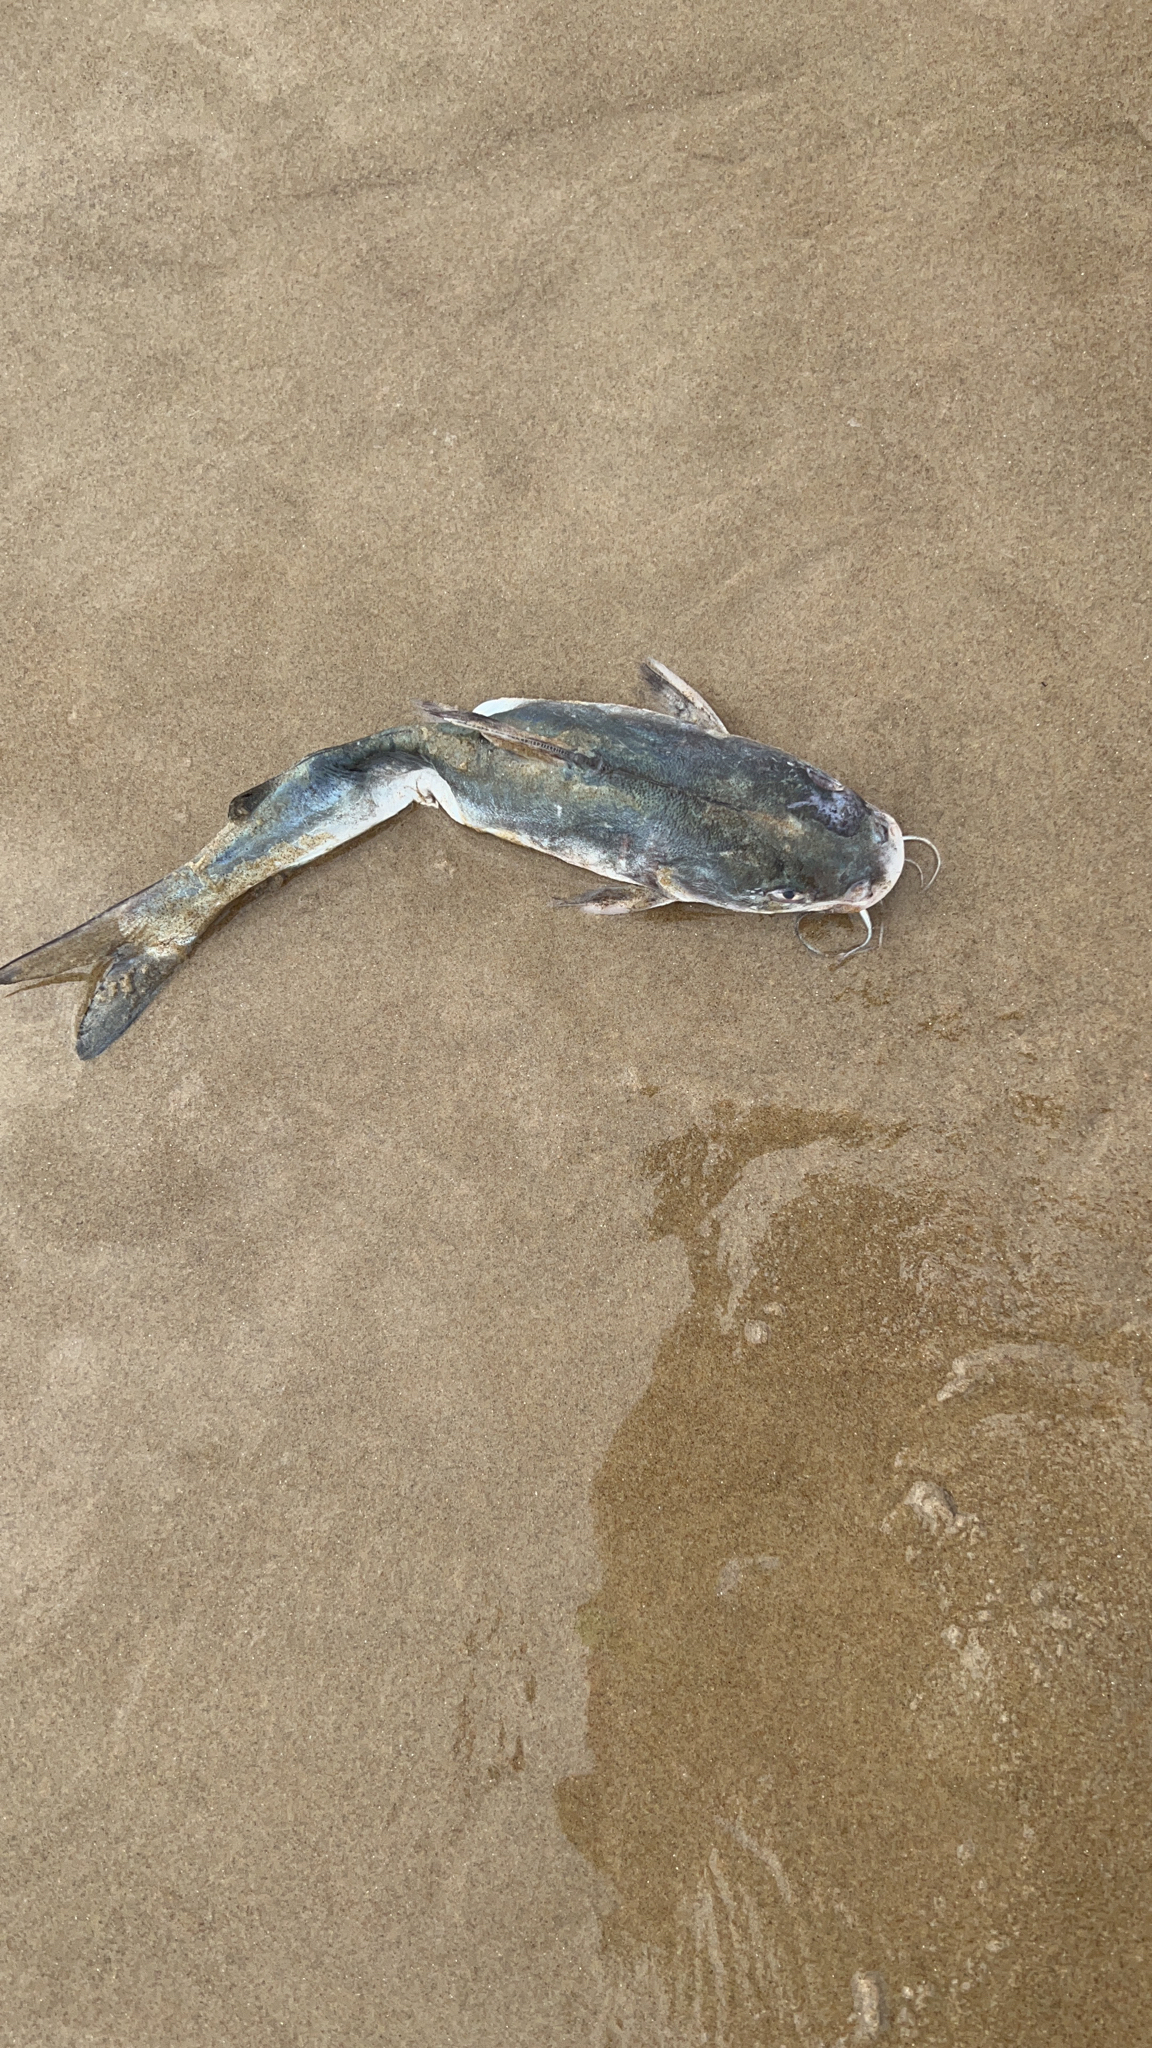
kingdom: Animalia
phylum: Chordata
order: Siluriformes
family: Ariidae
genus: Ariopsis
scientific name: Ariopsis felis
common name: Hardhead catfish
